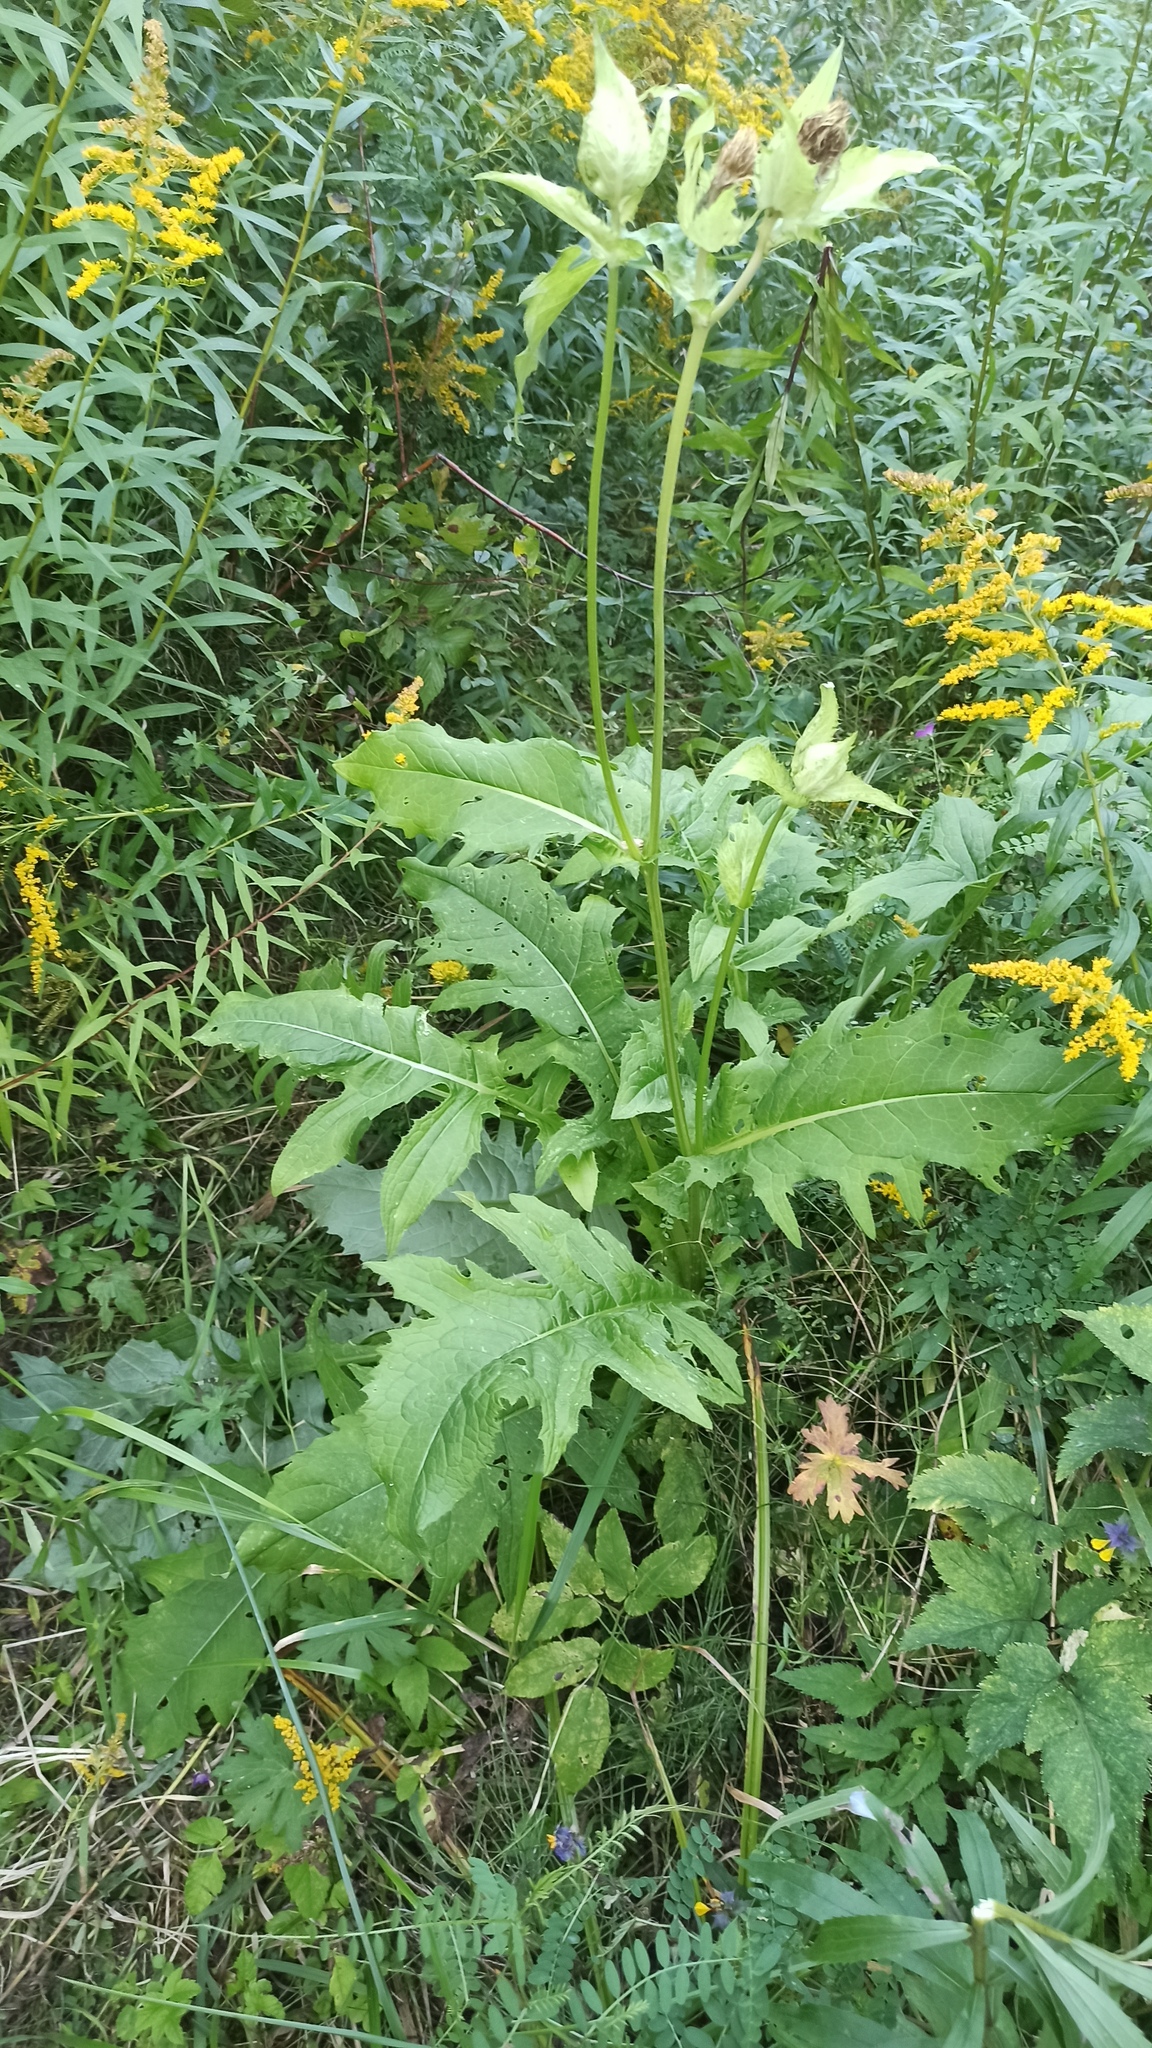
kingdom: Plantae
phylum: Tracheophyta
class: Magnoliopsida
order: Asterales
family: Asteraceae
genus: Cirsium
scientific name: Cirsium oleraceum
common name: Cabbage thistle
